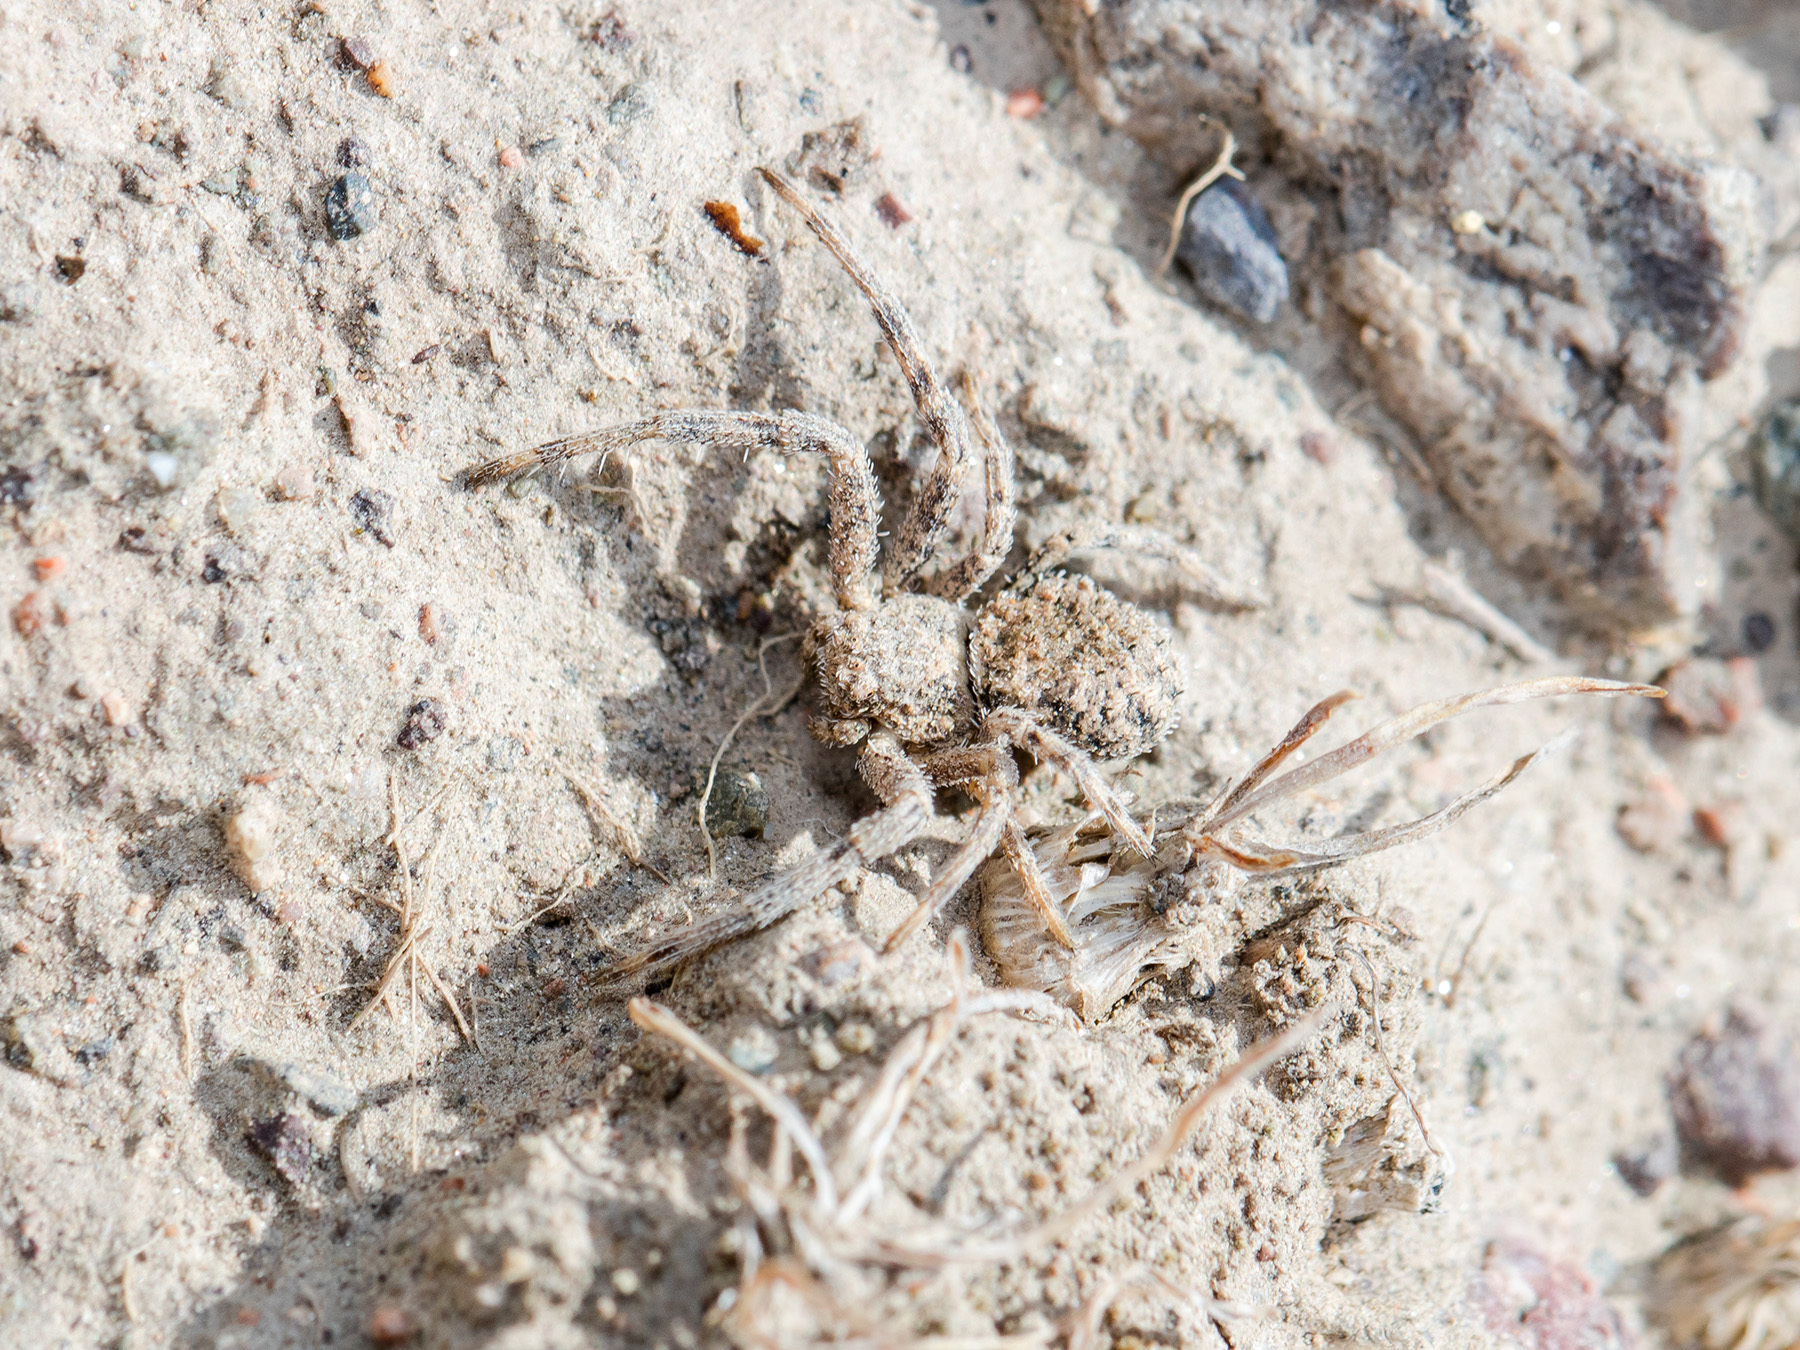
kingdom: Animalia
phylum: Arthropoda
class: Arachnida
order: Araneae
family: Thomisidae
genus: Ozyptila
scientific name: Ozyptila lugubris
